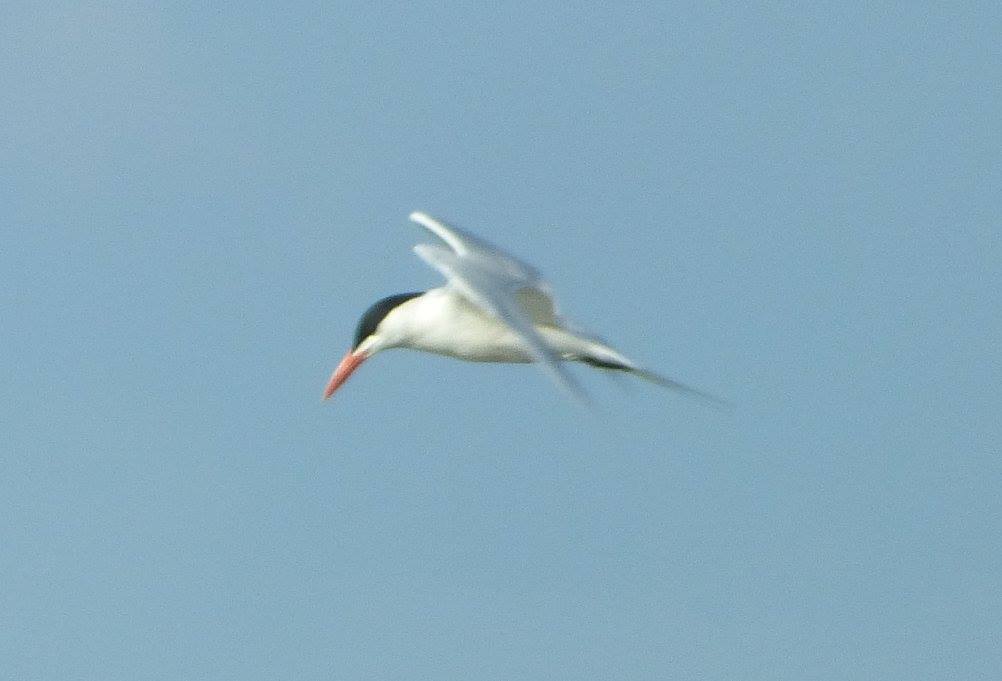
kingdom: Animalia
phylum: Chordata
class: Aves
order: Charadriiformes
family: Laridae
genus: Thalasseus
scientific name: Thalasseus maximus
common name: Royal tern
